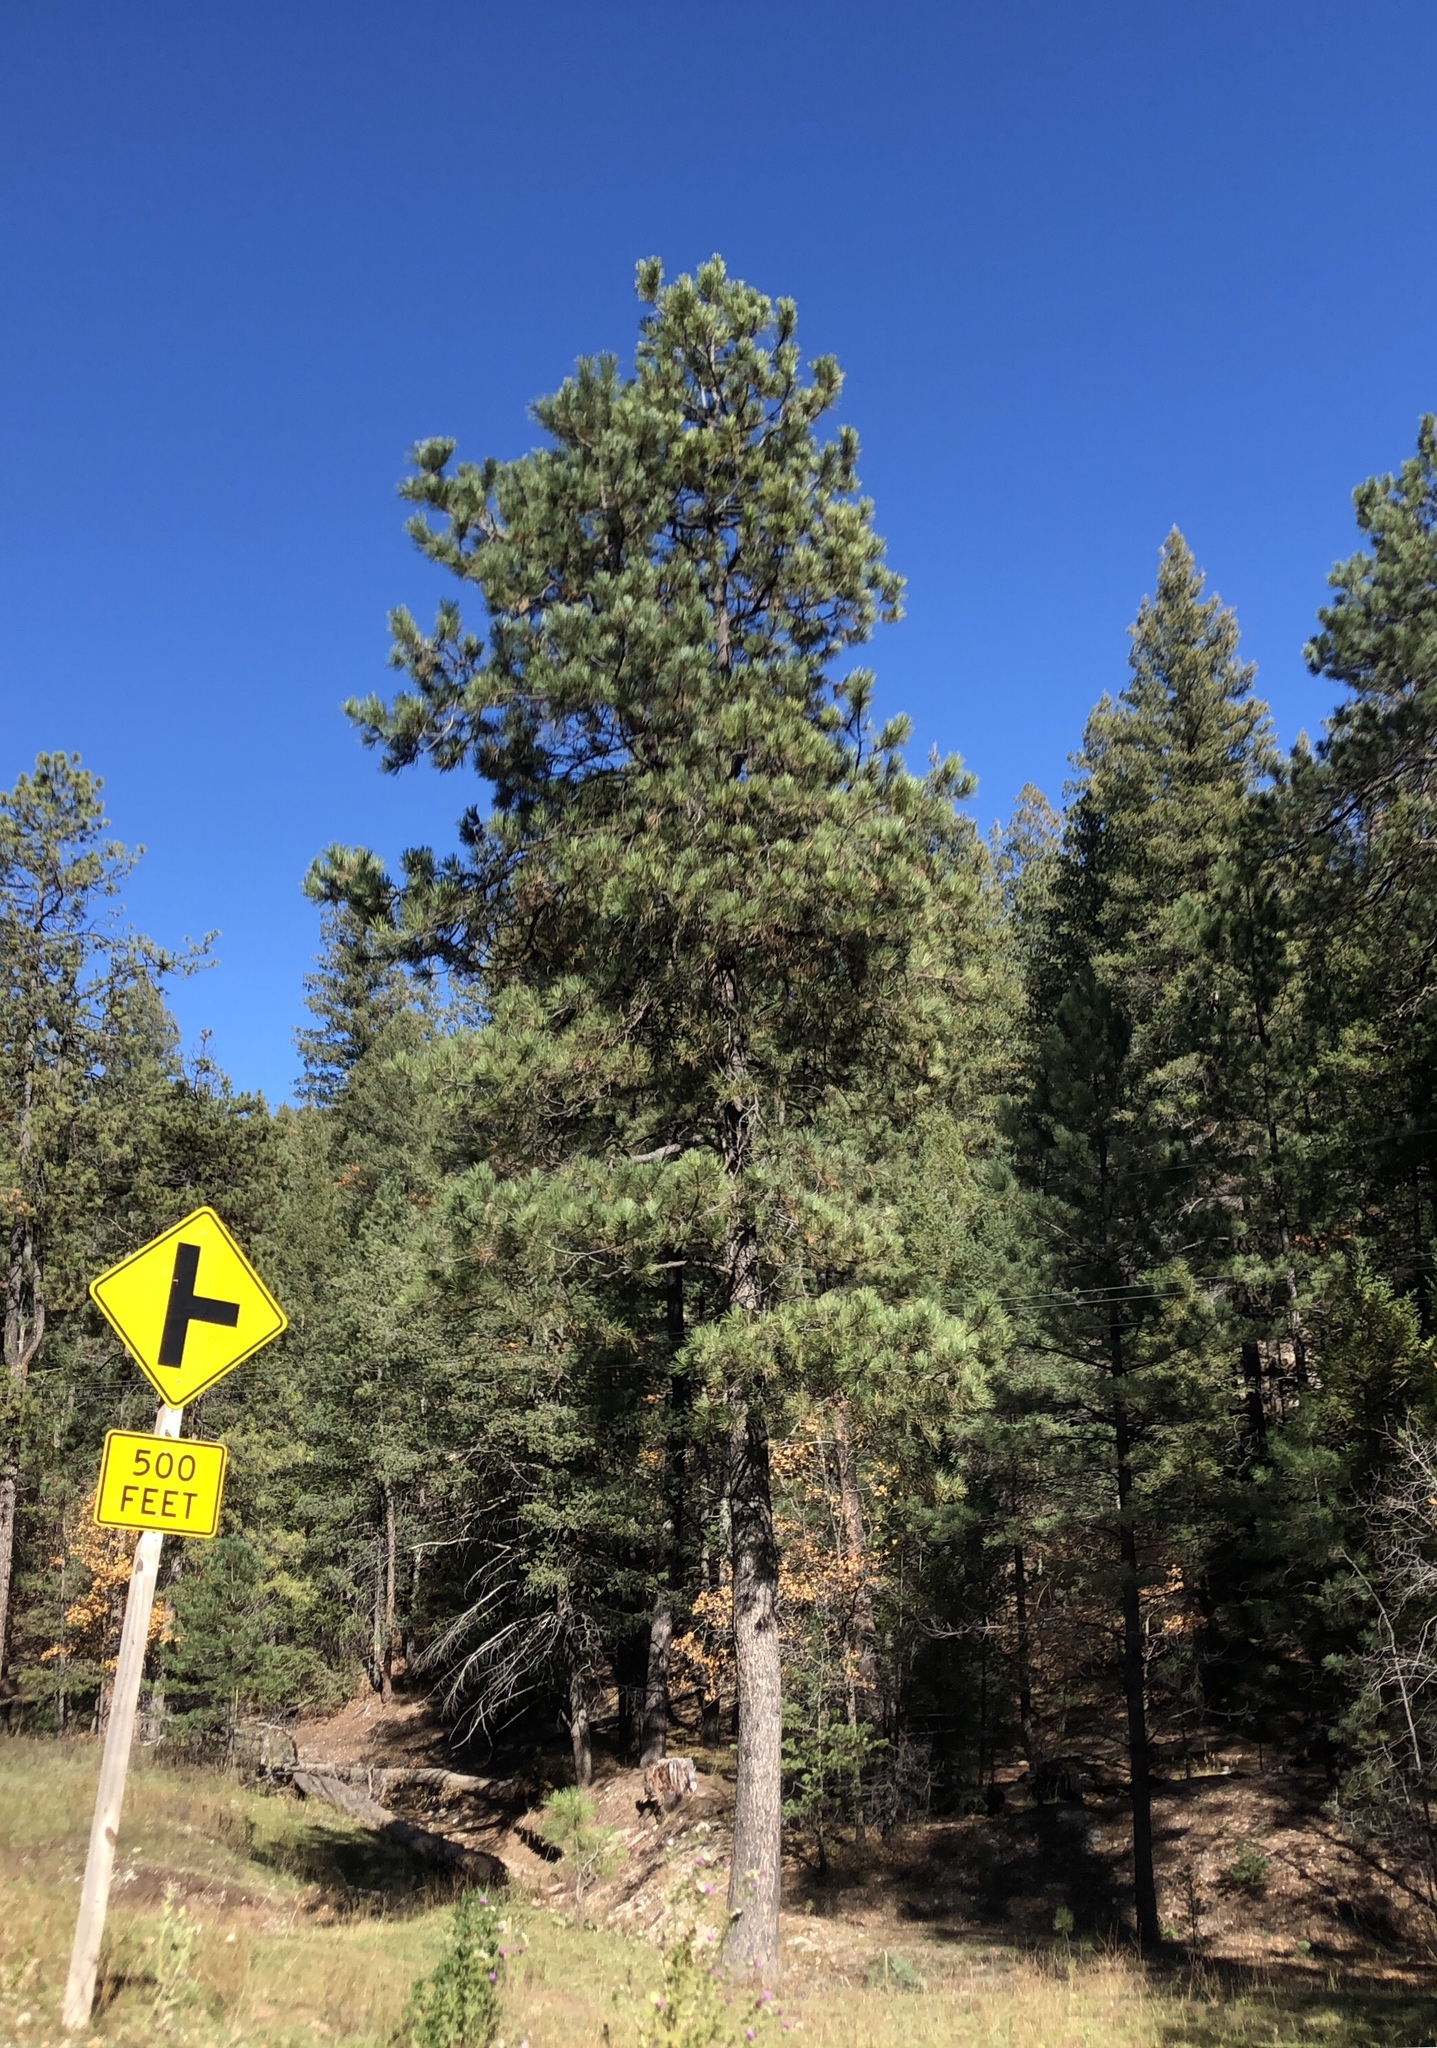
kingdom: Plantae
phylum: Tracheophyta
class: Pinopsida
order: Pinales
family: Pinaceae
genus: Pinus
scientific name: Pinus ponderosa
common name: Western yellow-pine
